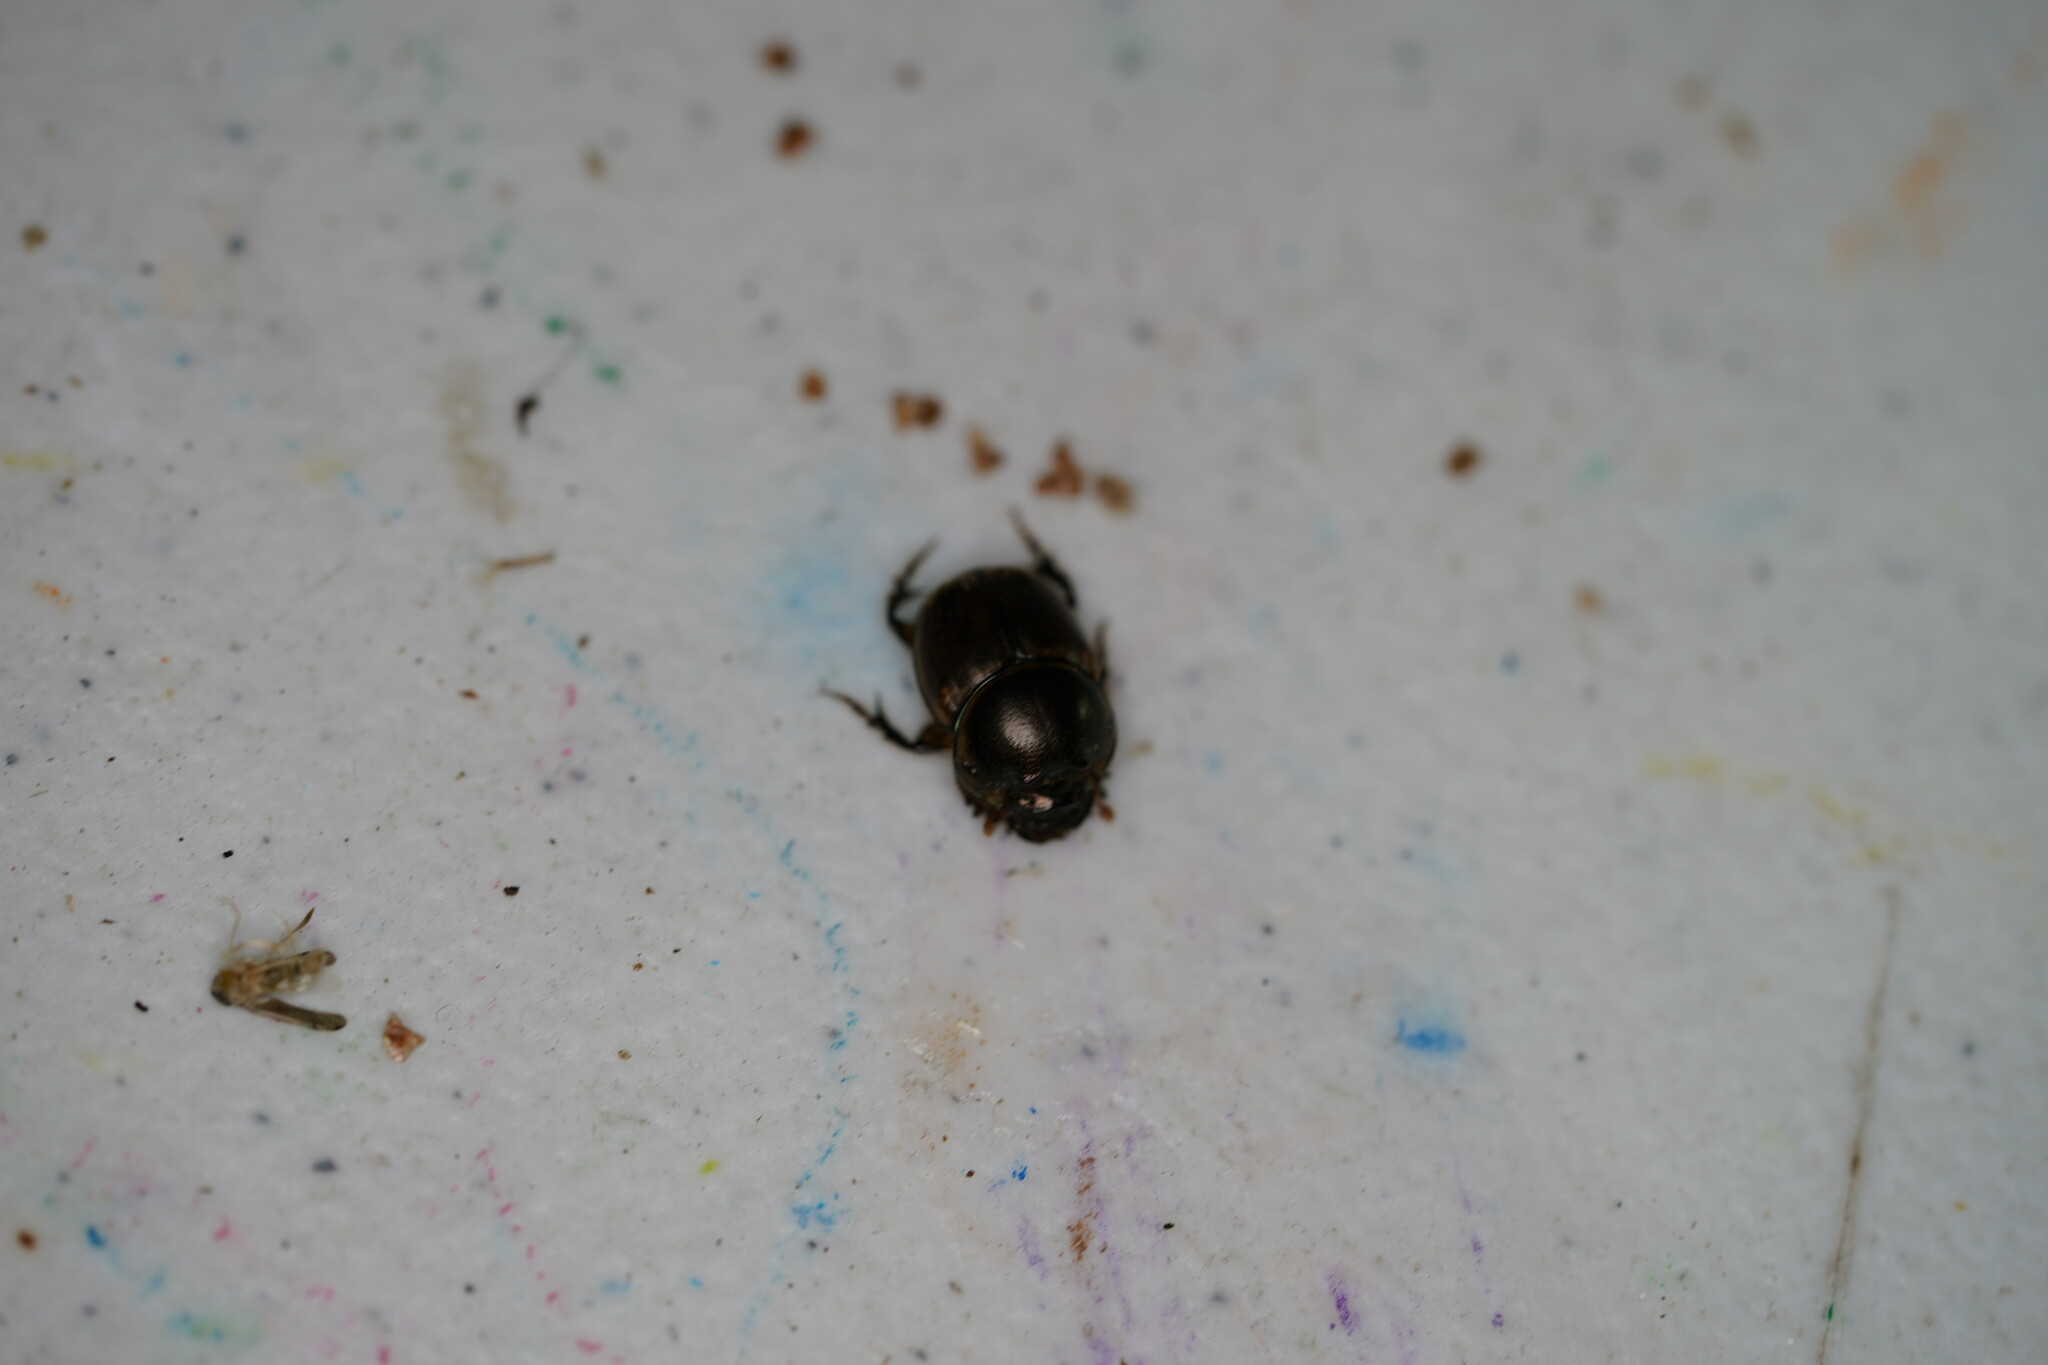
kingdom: Animalia
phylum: Arthropoda
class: Insecta
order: Coleoptera
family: Scarabaeidae
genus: Digitonthophagus
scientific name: Digitonthophagus gazella
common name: Brown dung beetle
